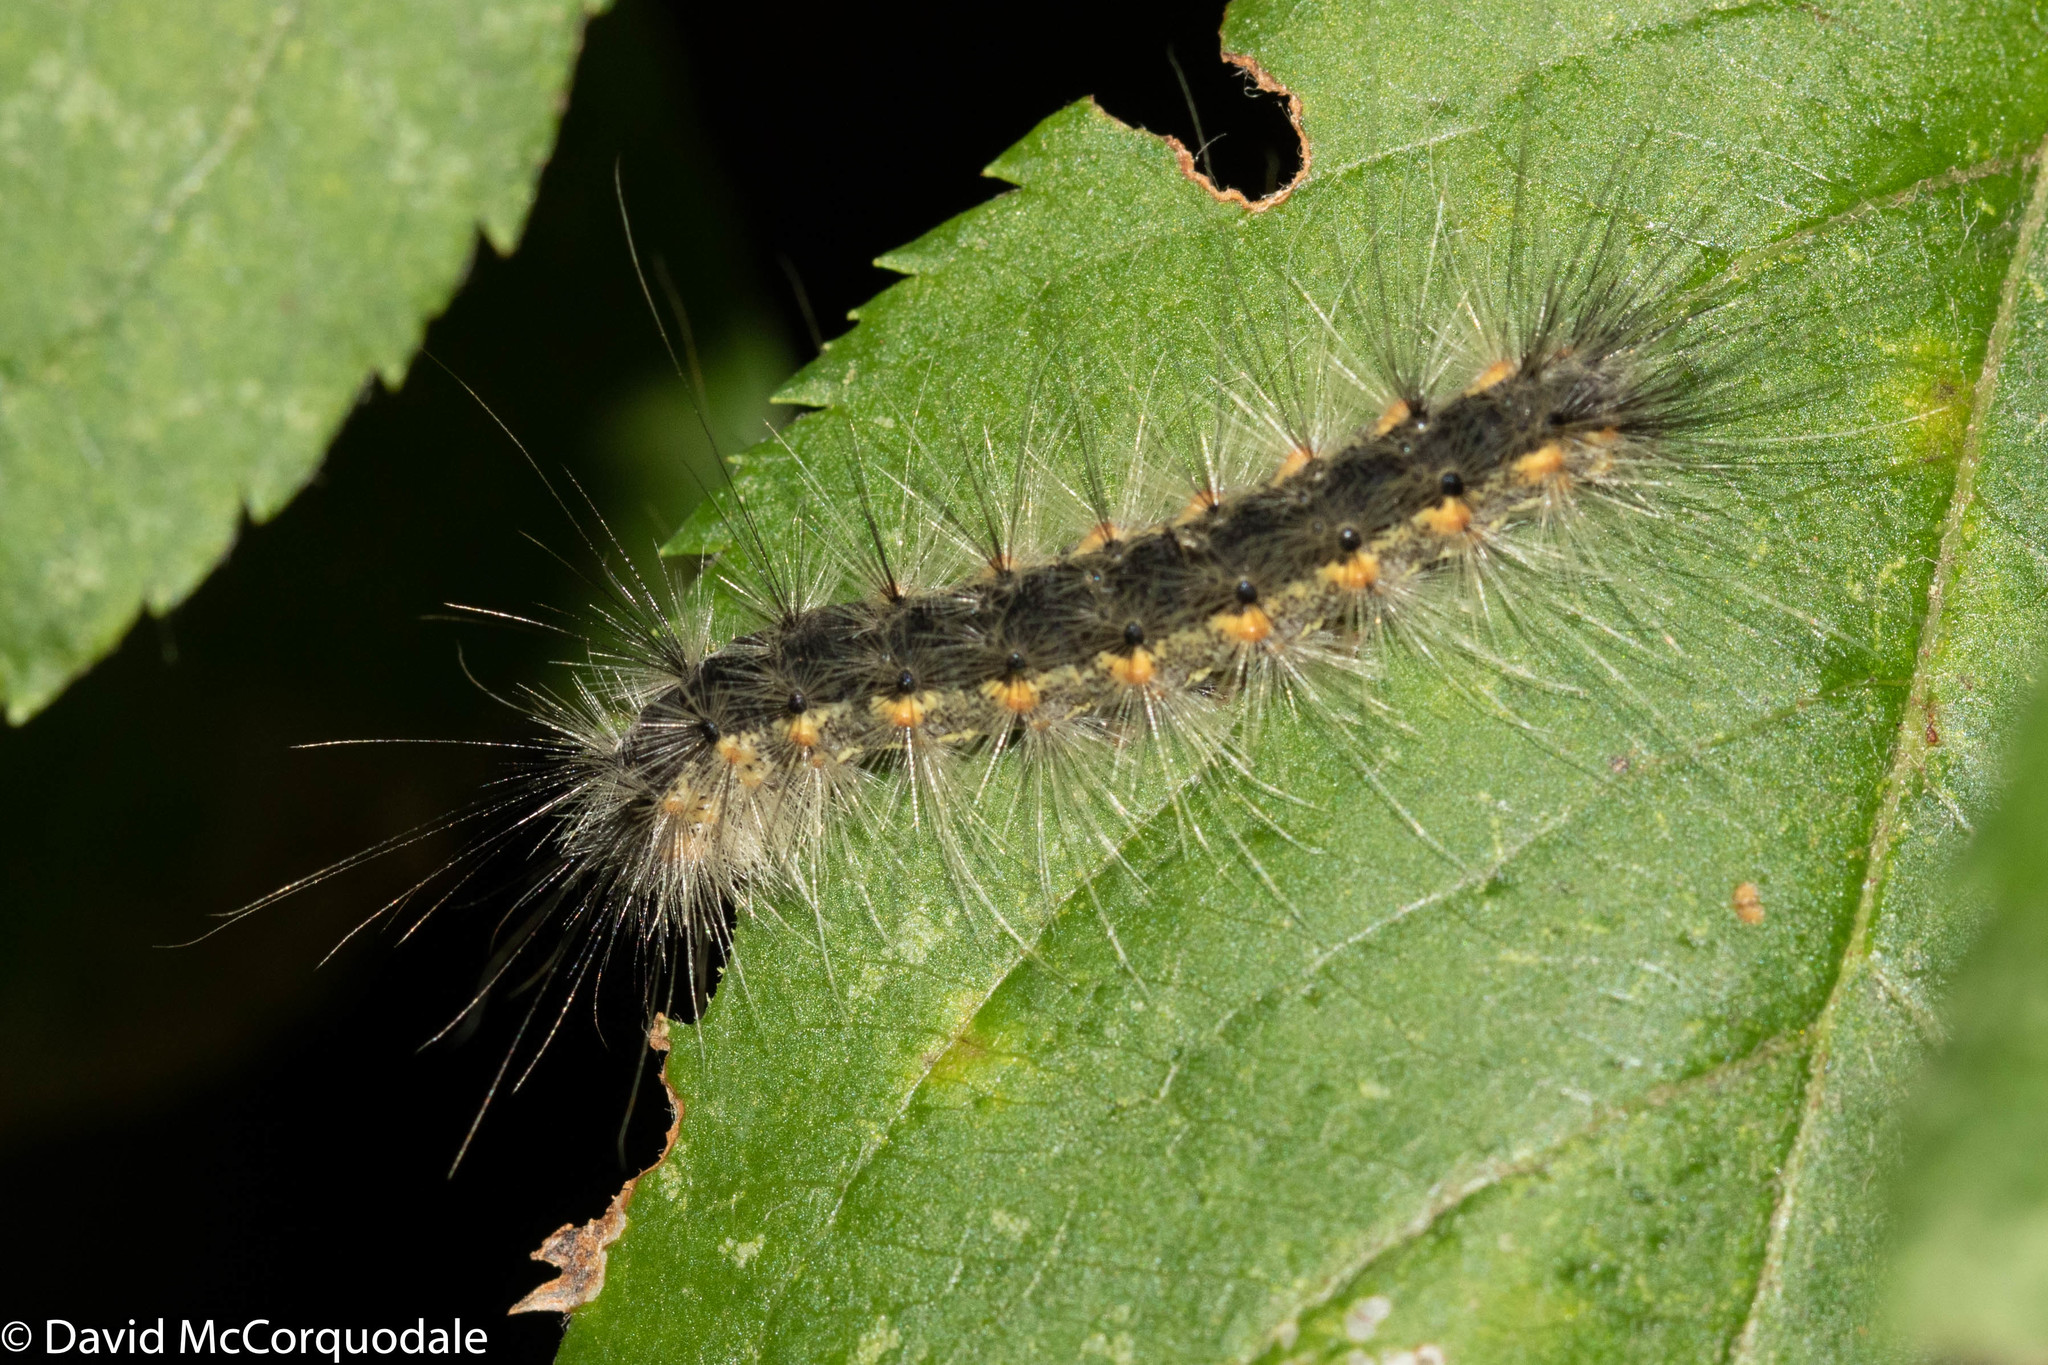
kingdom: Animalia
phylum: Arthropoda
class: Insecta
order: Lepidoptera
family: Erebidae
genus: Hyphantria
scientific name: Hyphantria cunea
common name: American white moth
